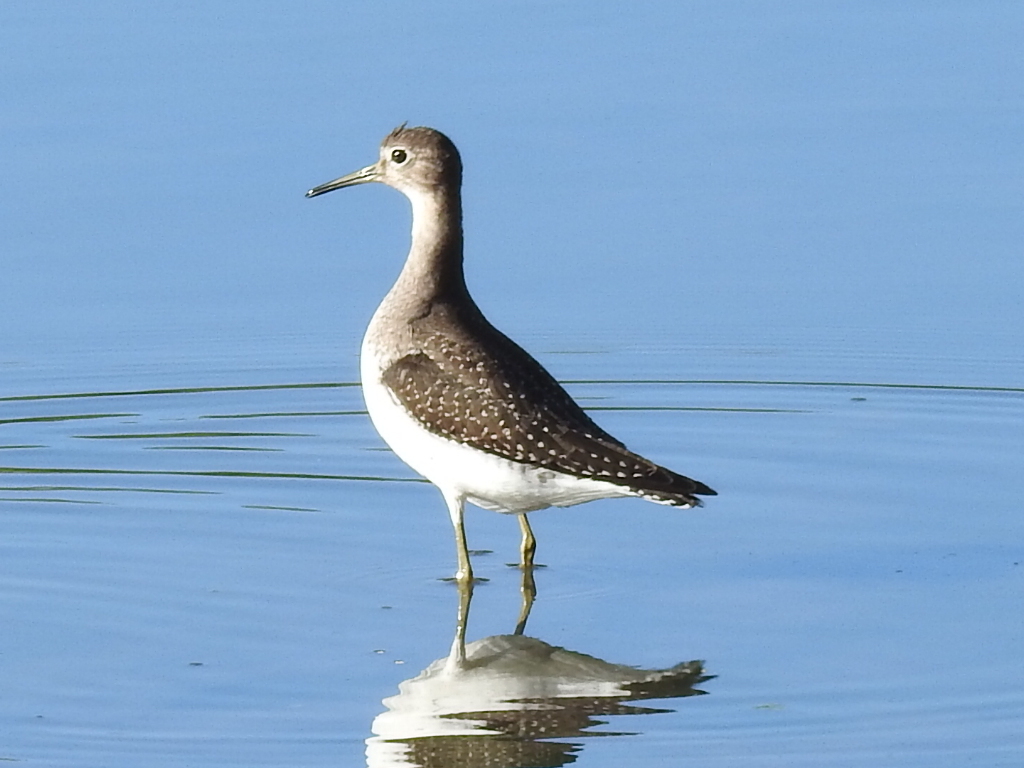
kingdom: Animalia
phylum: Chordata
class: Aves
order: Charadriiformes
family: Scolopacidae
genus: Tringa
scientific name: Tringa solitaria
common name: Solitary sandpiper
